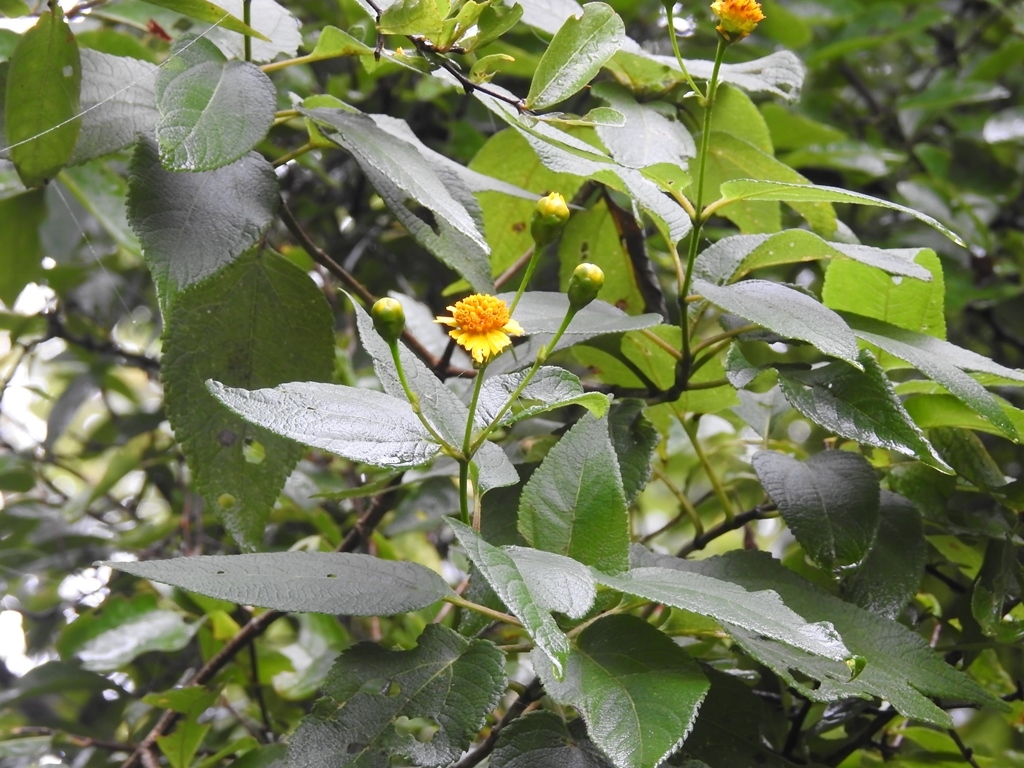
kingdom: Plantae
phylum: Tracheophyta
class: Magnoliopsida
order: Asterales
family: Asteraceae
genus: Lasianthaea
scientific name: Lasianthaea fruticosa
